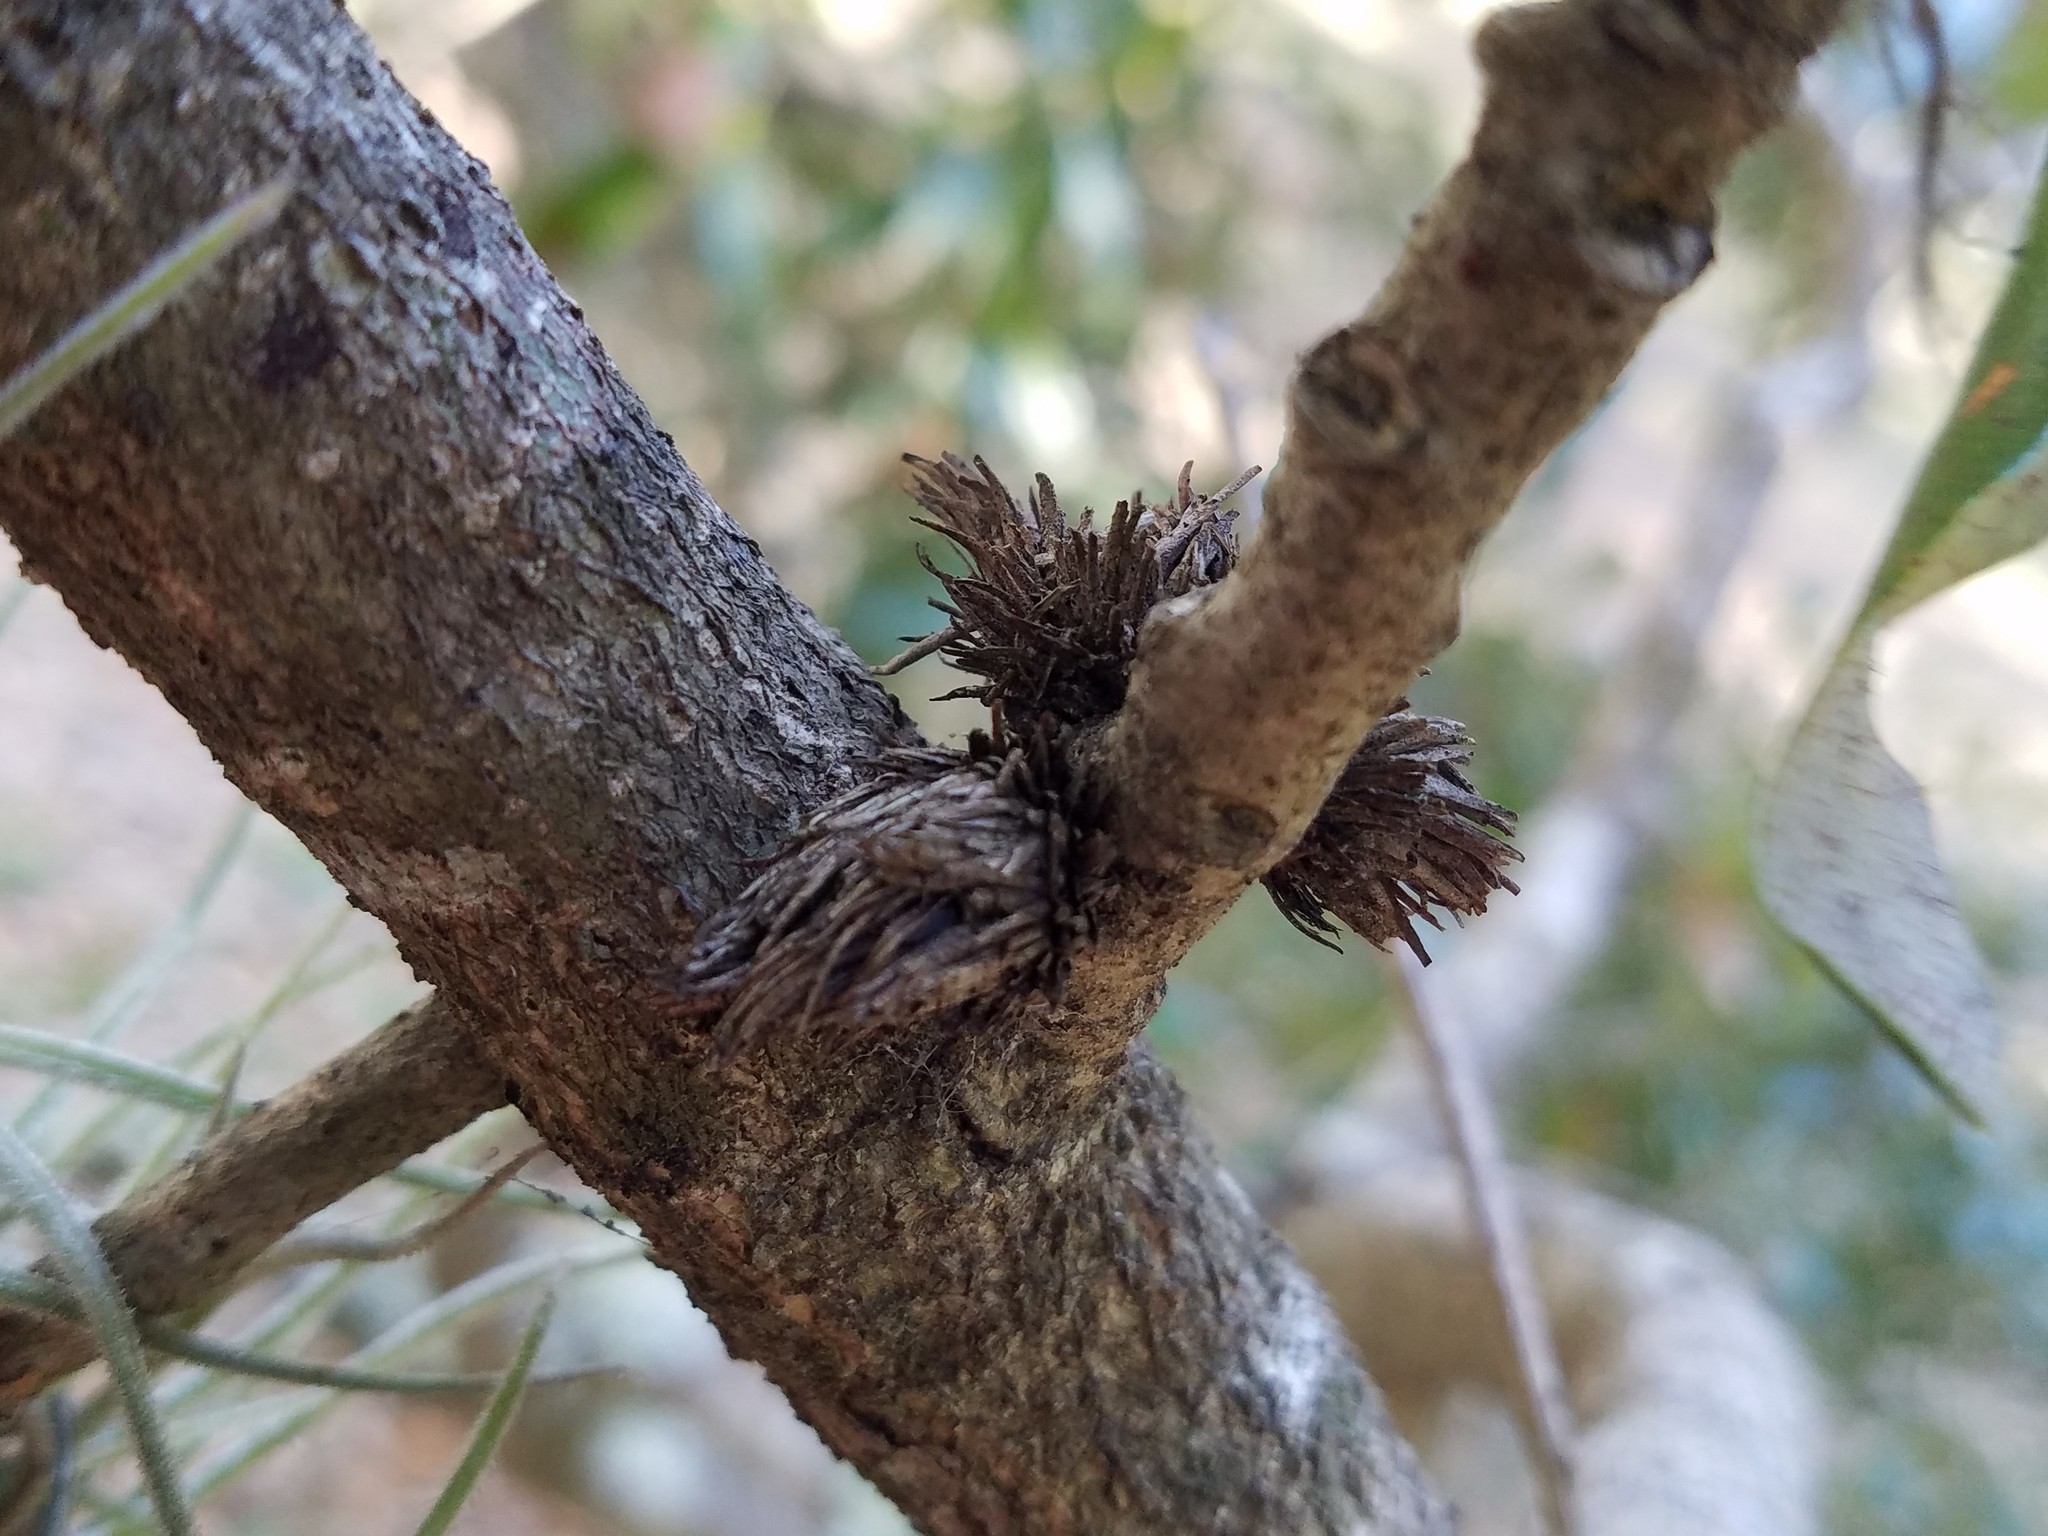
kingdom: Animalia
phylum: Arthropoda
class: Insecta
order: Hymenoptera
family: Cynipidae
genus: Andricus
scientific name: Andricus quercusfoliatus
